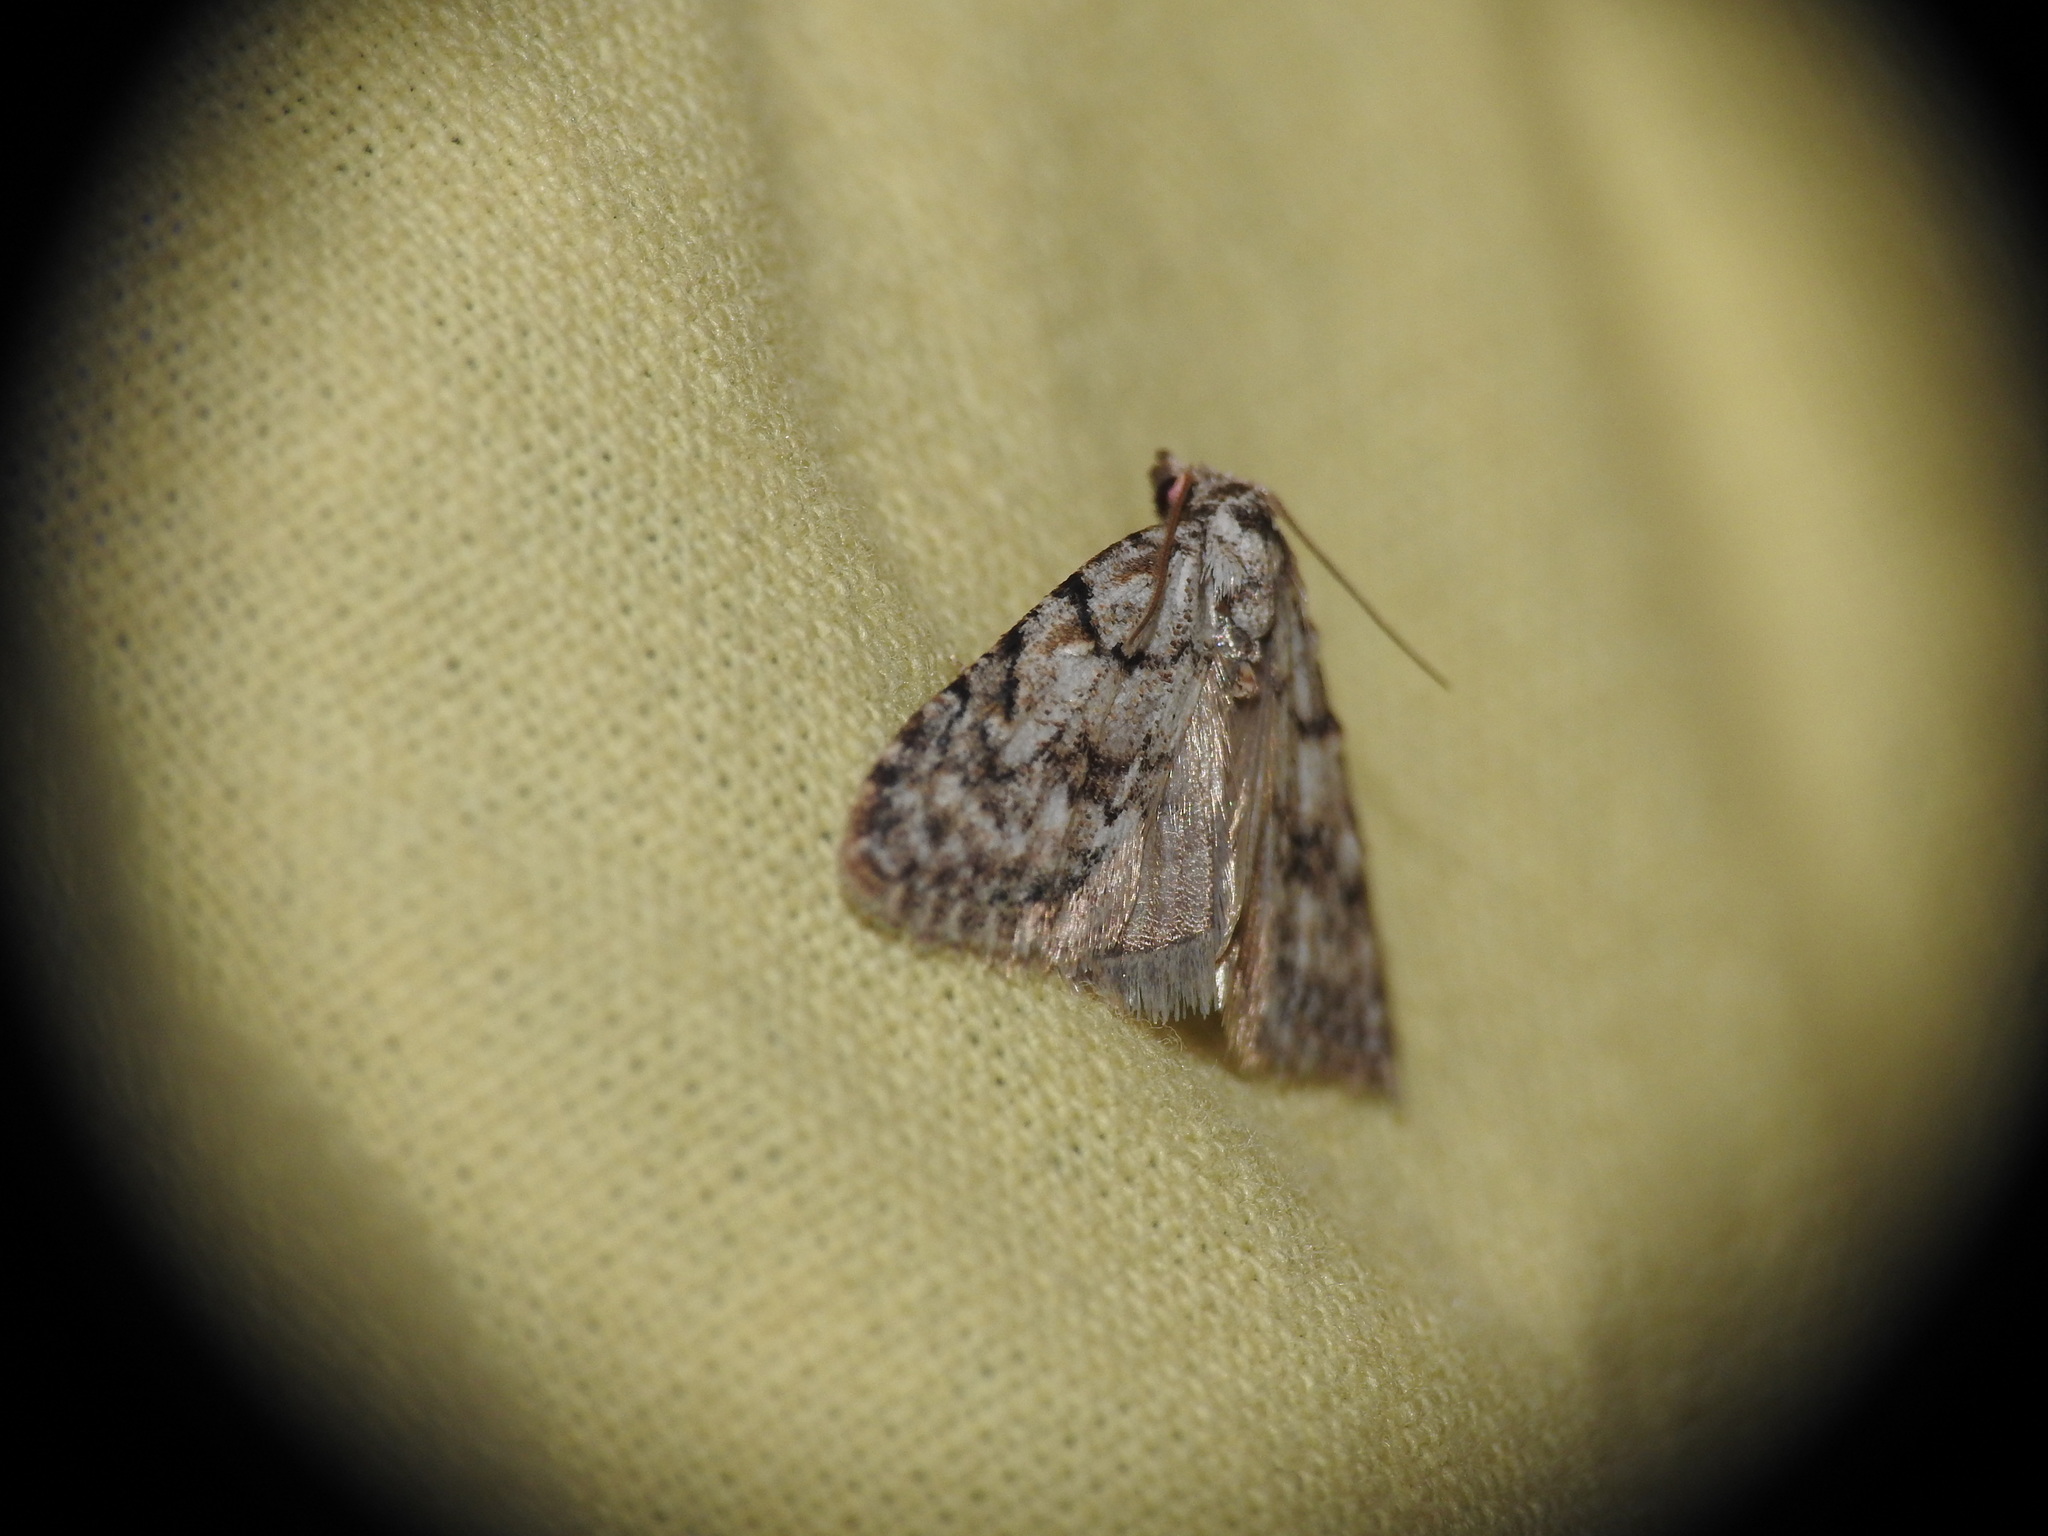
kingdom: Animalia
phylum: Arthropoda
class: Insecta
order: Lepidoptera
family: Nolidae
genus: Nola
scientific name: Nola cicatricalis
